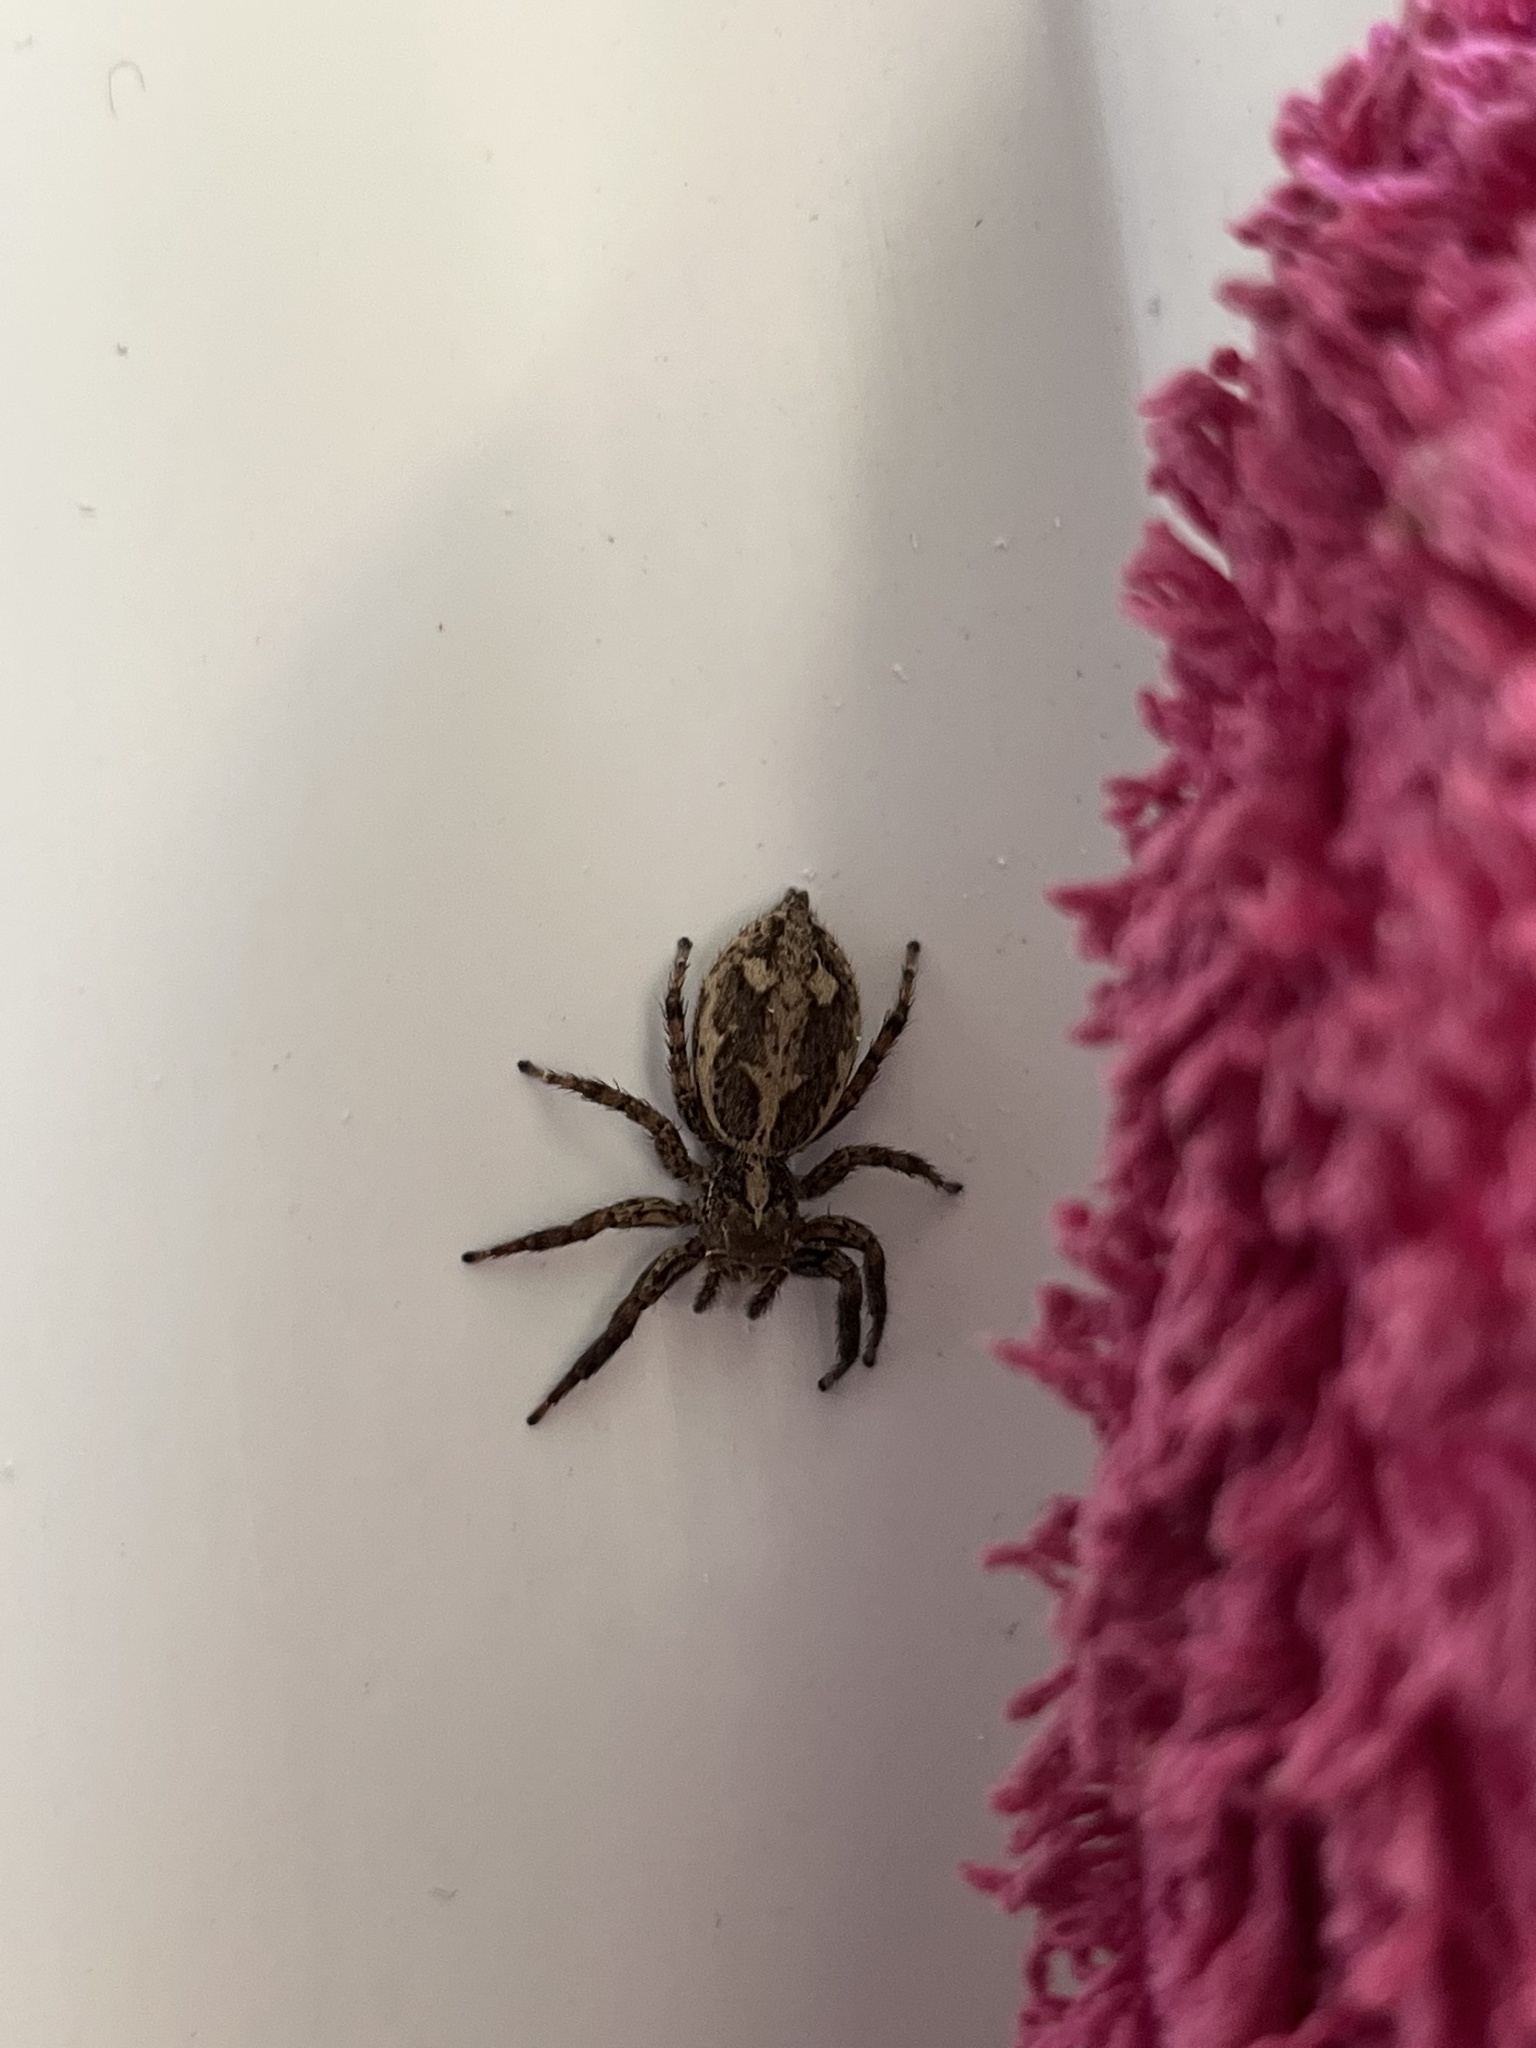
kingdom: Animalia
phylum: Arthropoda
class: Arachnida
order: Araneae
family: Salticidae
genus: Plexippus
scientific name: Plexippus paykulli
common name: Pantropical jumper
